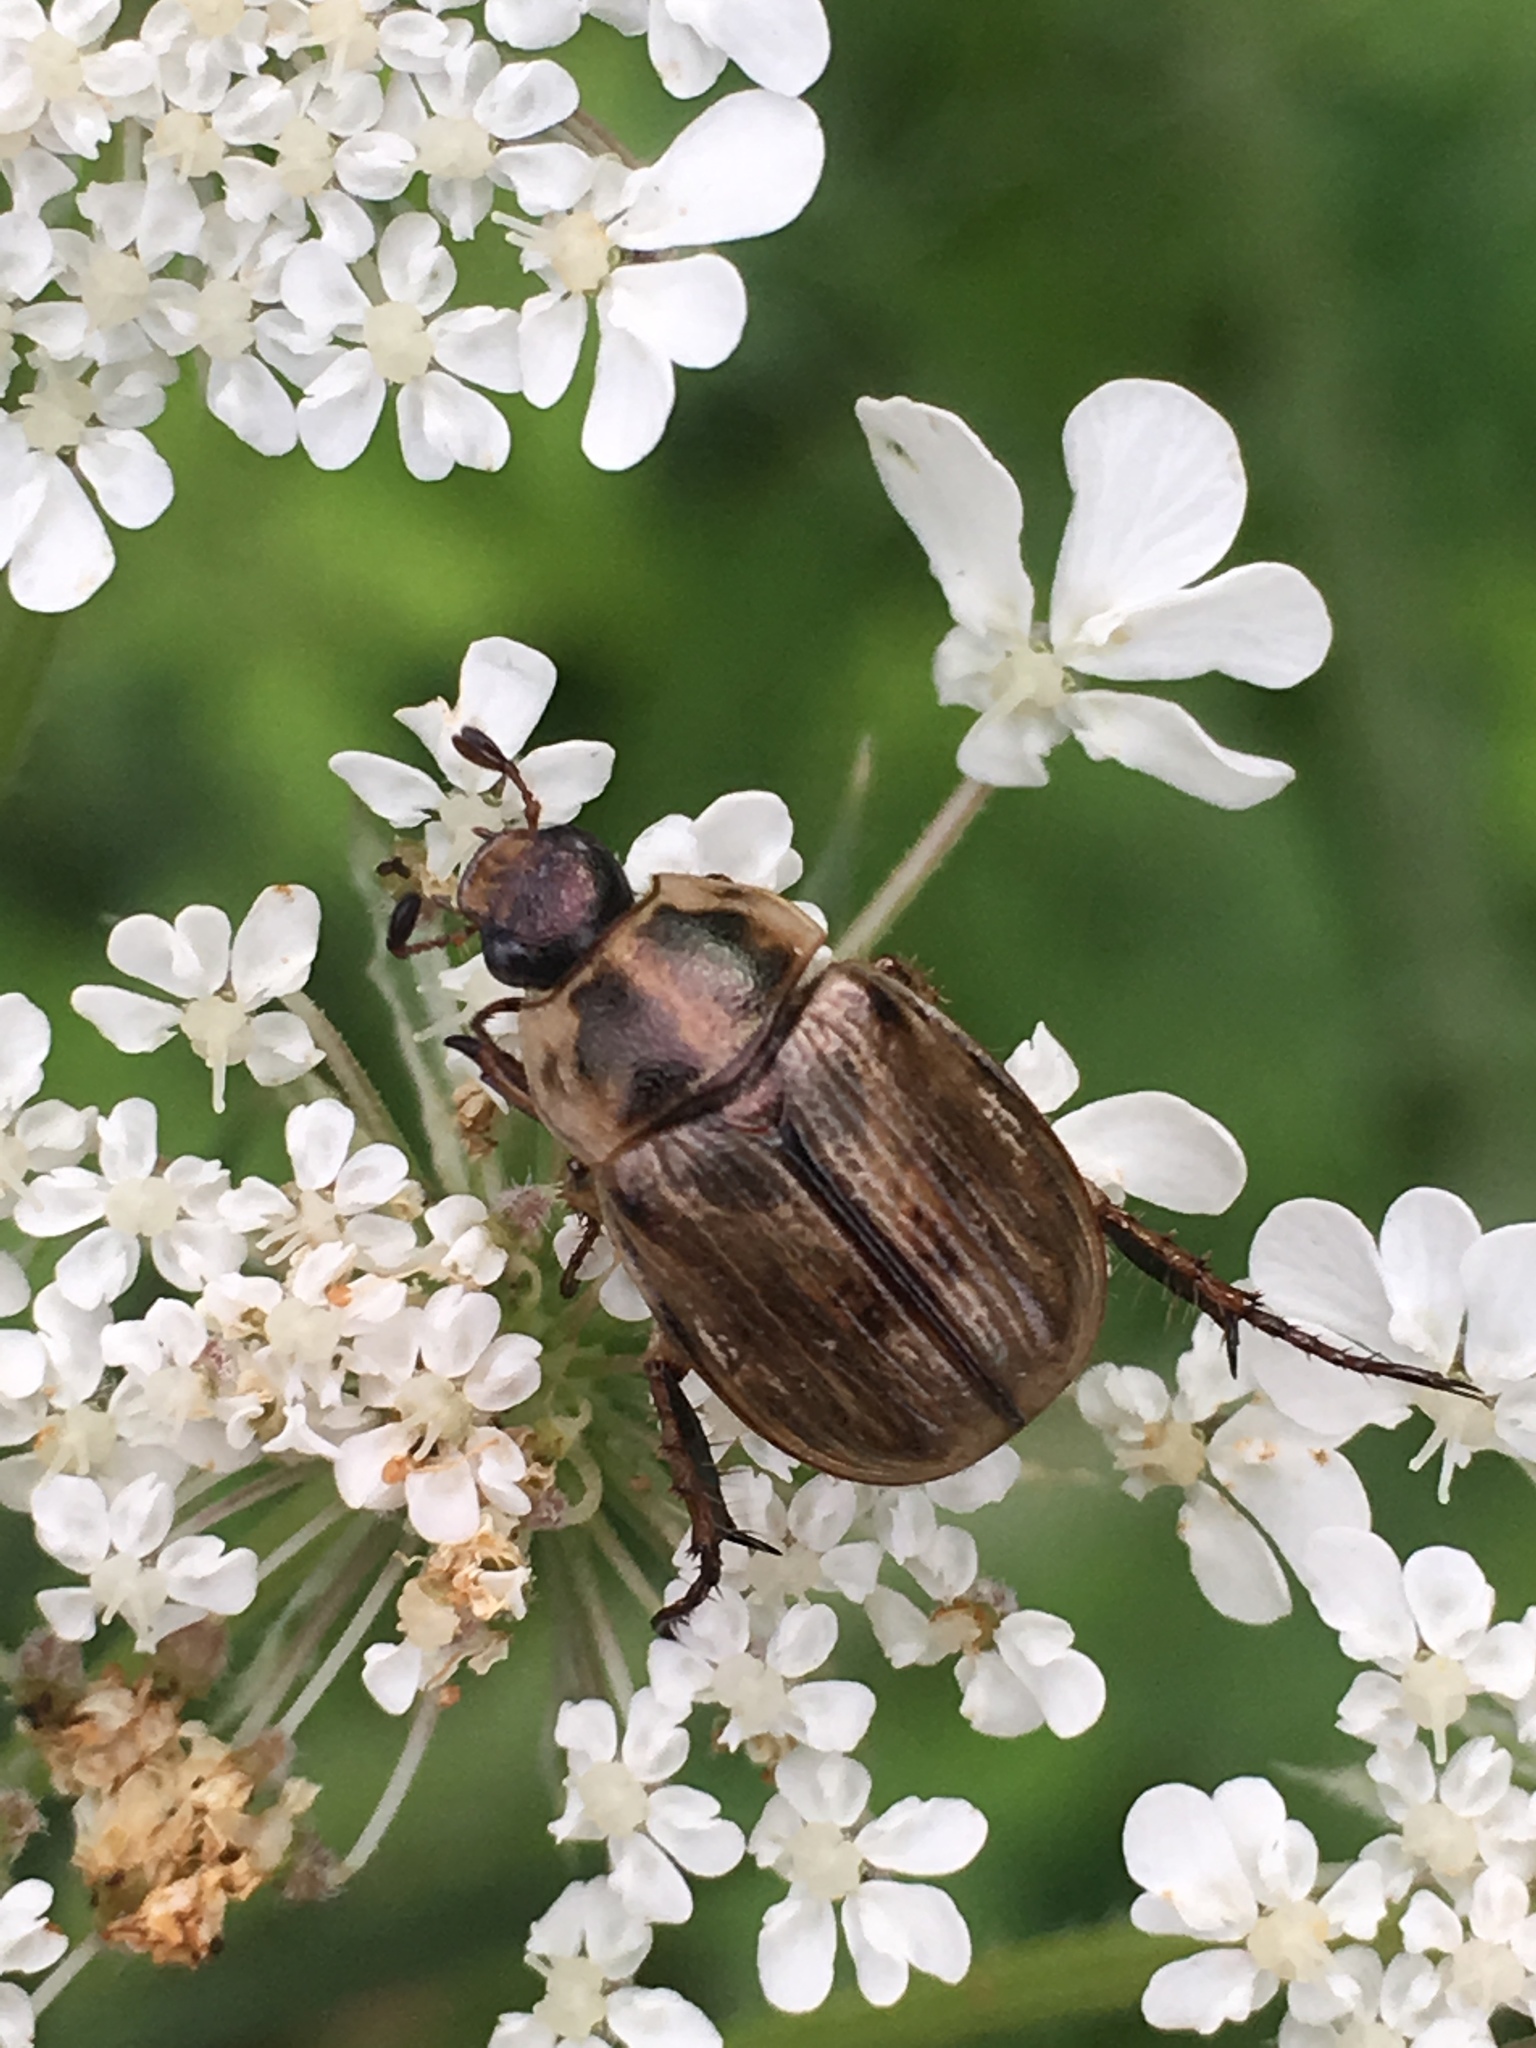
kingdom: Animalia
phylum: Arthropoda
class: Insecta
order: Coleoptera
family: Scarabaeidae
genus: Exomala
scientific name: Exomala orientalis
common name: Oriental beetle
